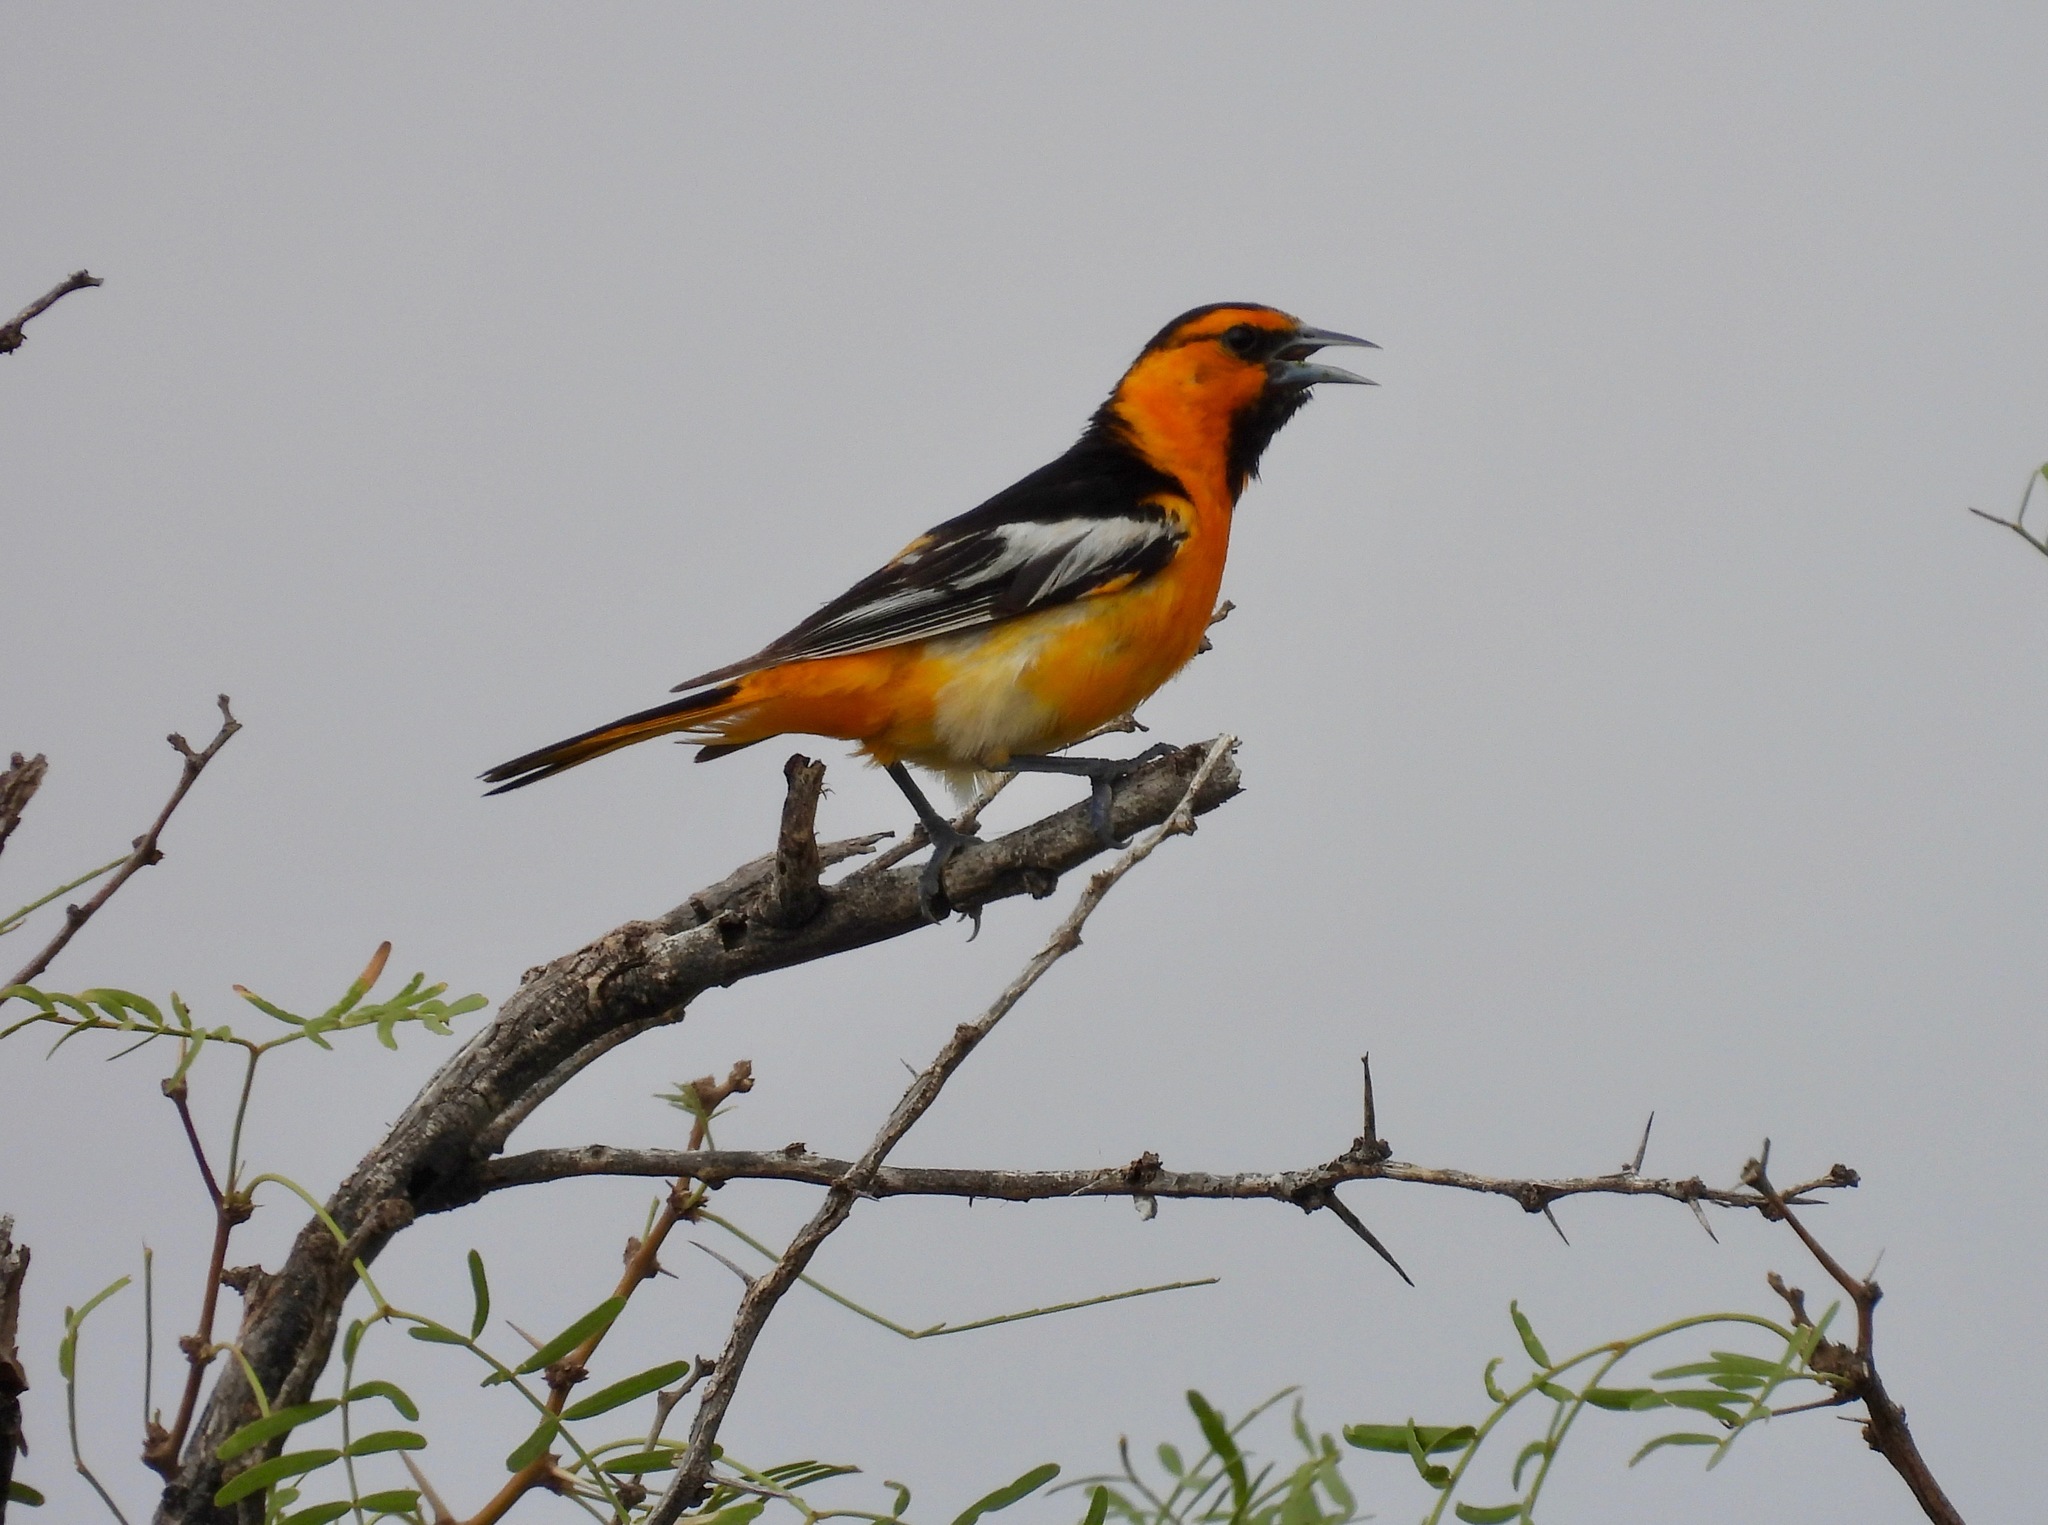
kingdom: Animalia
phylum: Chordata
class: Aves
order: Passeriformes
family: Icteridae
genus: Icterus
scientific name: Icterus bullockii
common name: Bullock's oriole
